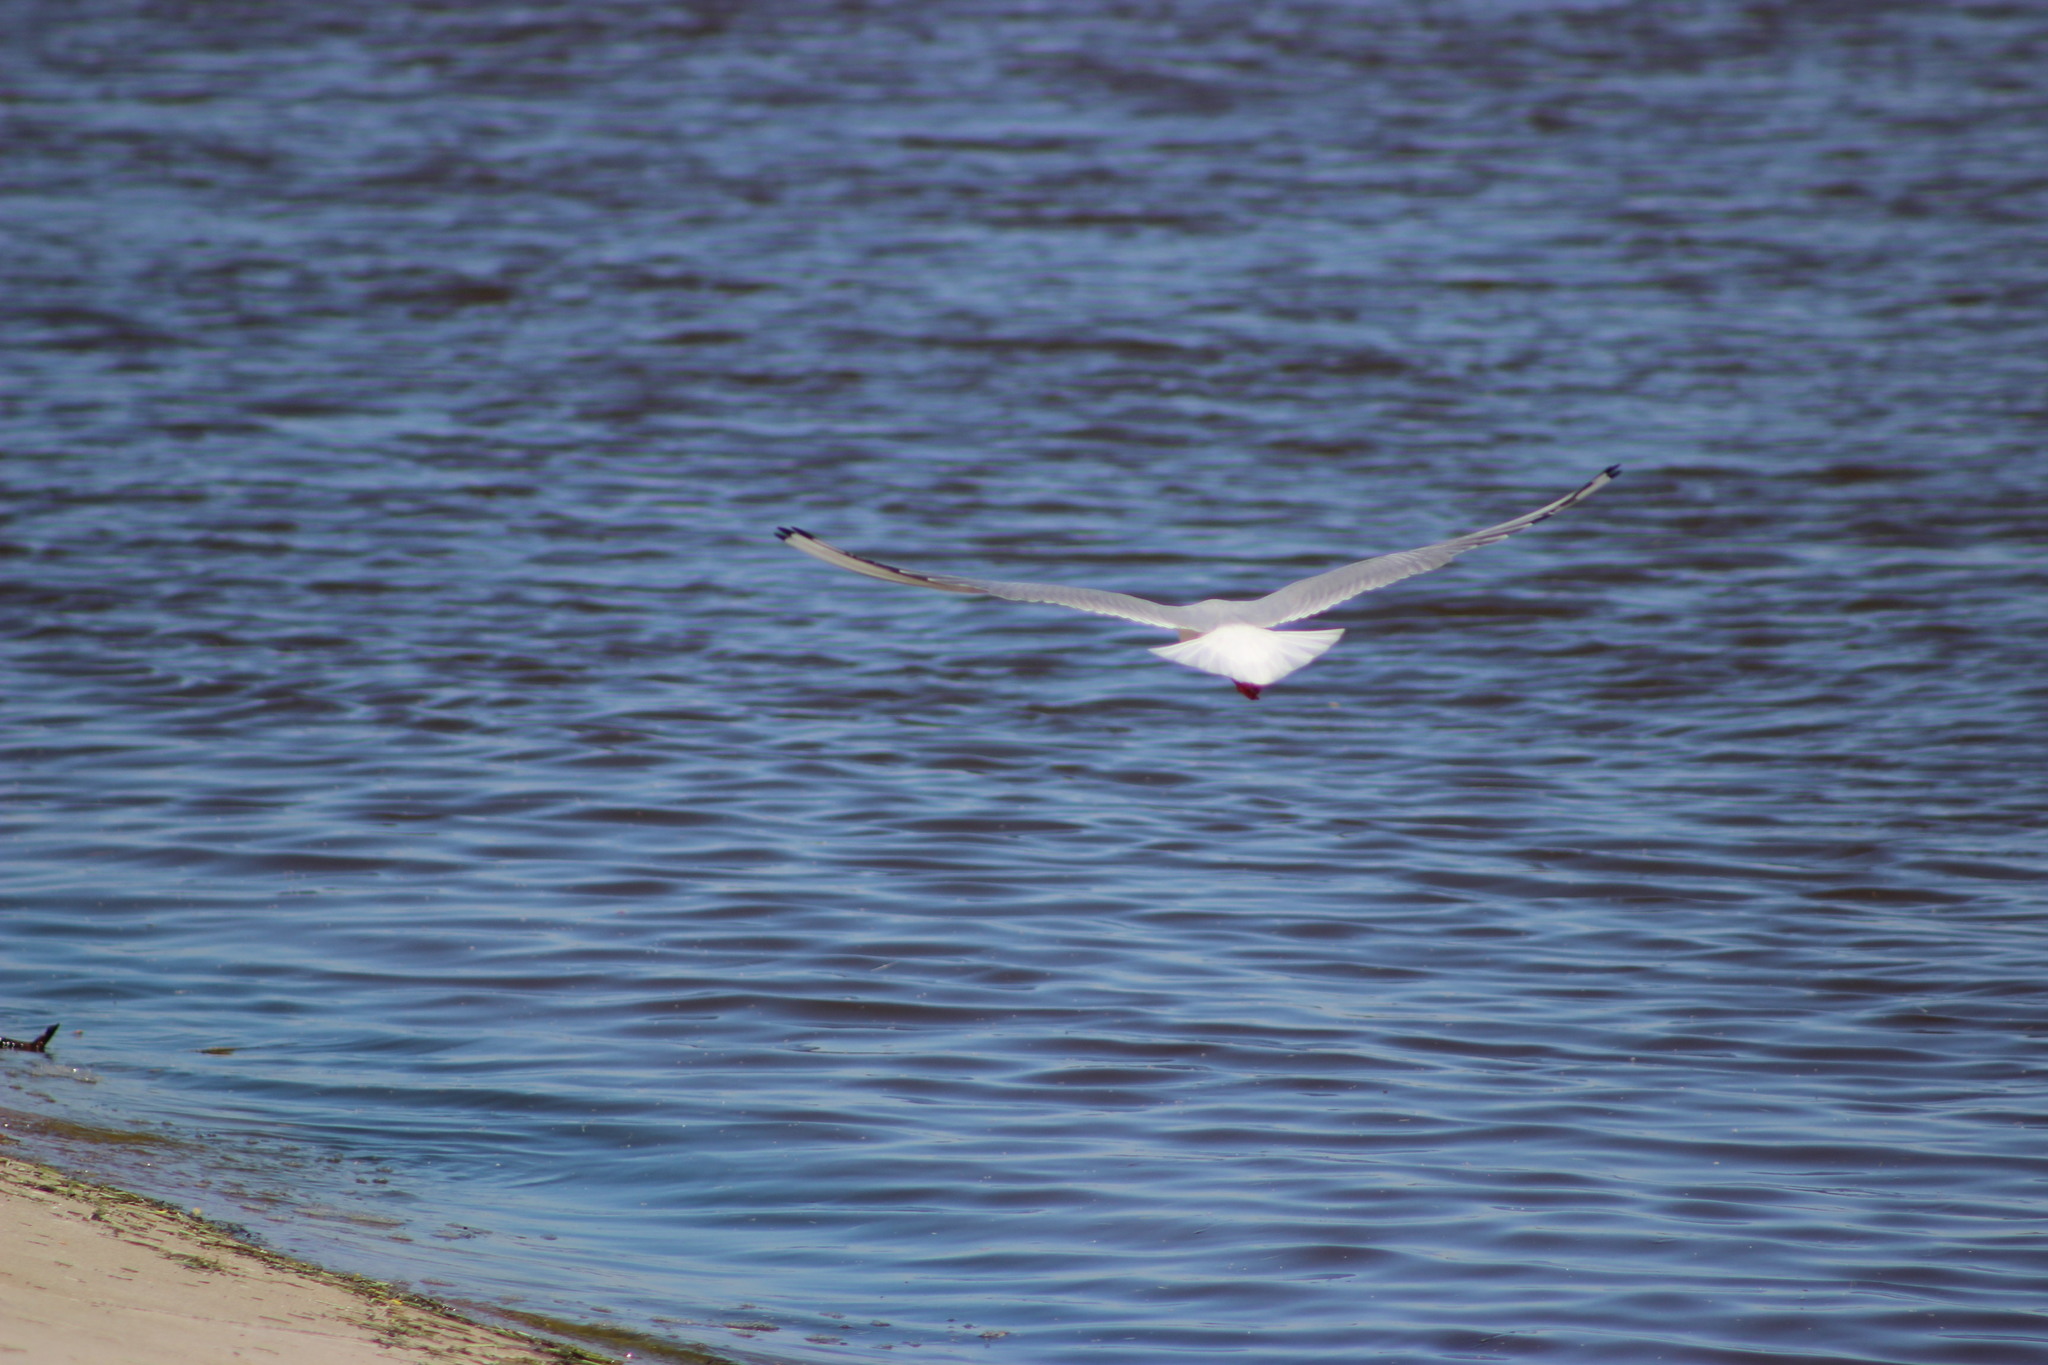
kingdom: Animalia
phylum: Chordata
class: Aves
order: Charadriiformes
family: Laridae
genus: Chroicocephalus
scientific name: Chroicocephalus ridibundus
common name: Black-headed gull
